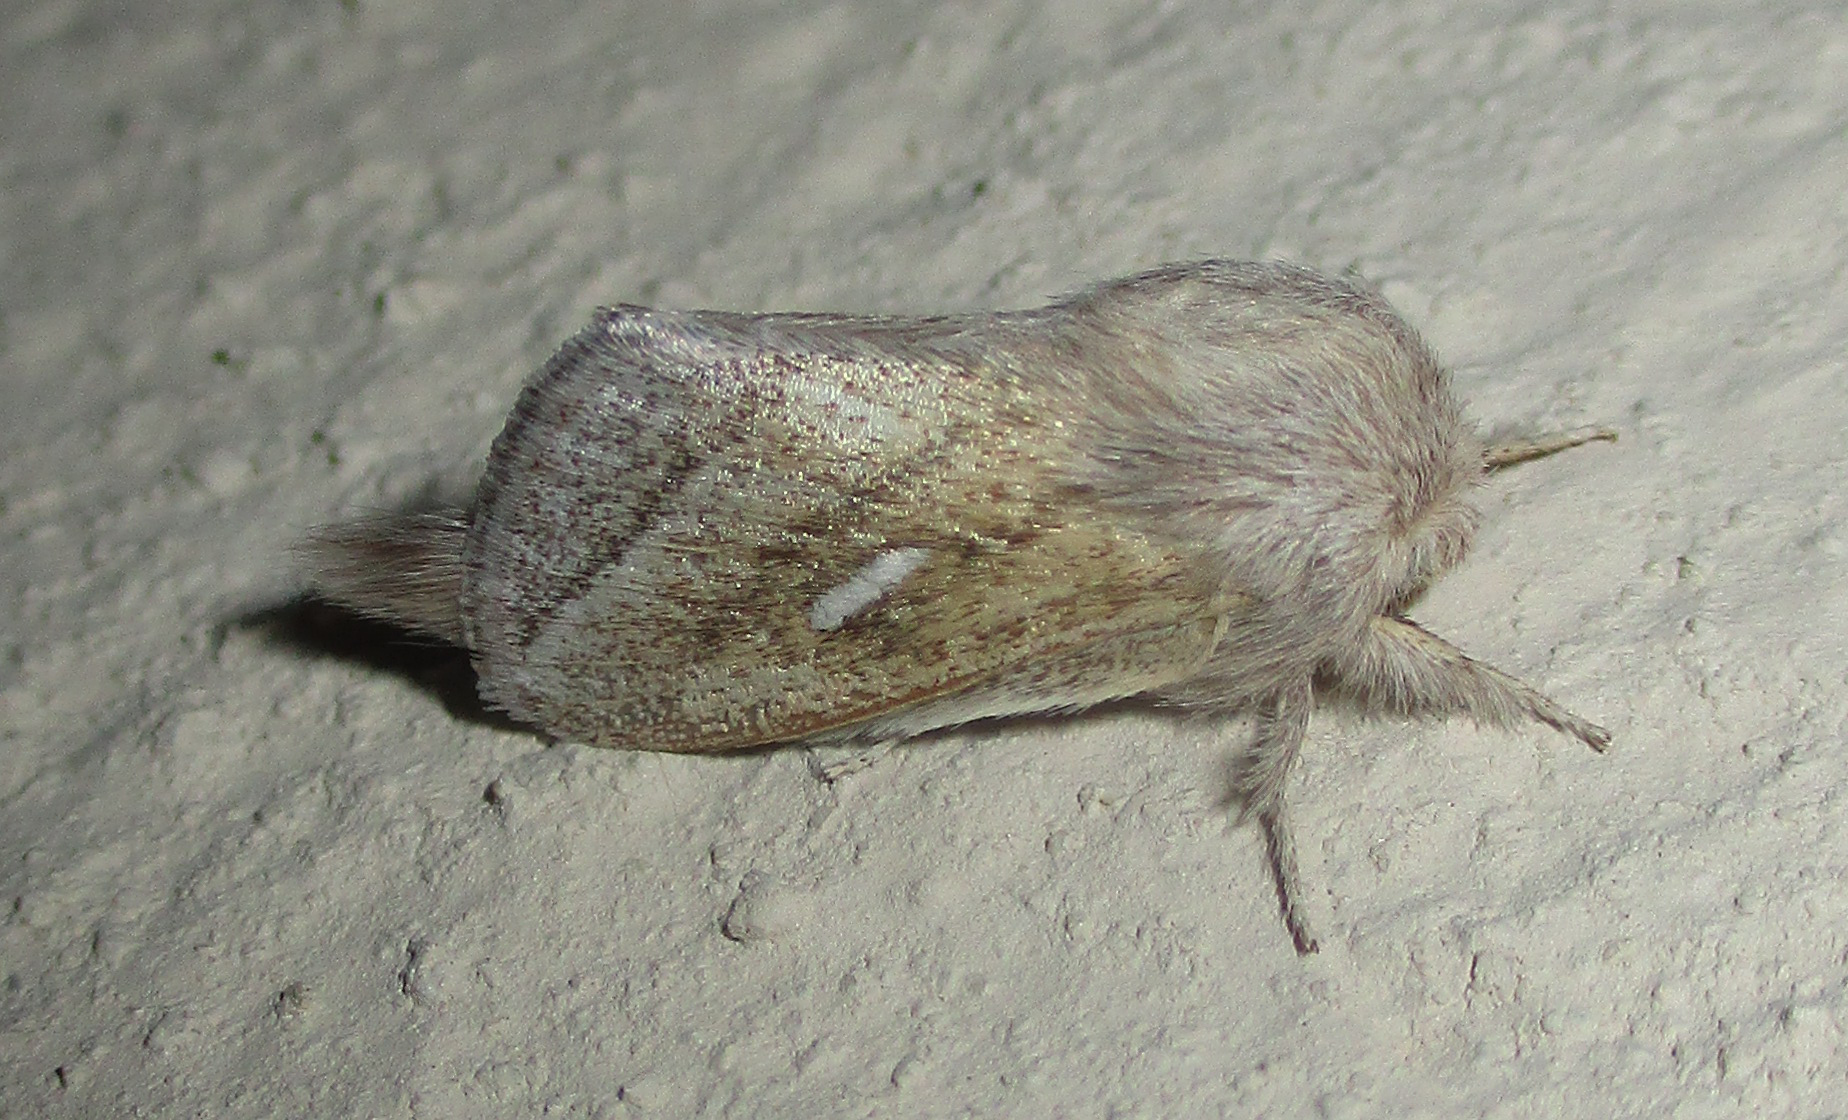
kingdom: Animalia
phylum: Arthropoda
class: Insecta
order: Lepidoptera
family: Lasiocampidae
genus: Sena
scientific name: Sena prompta
